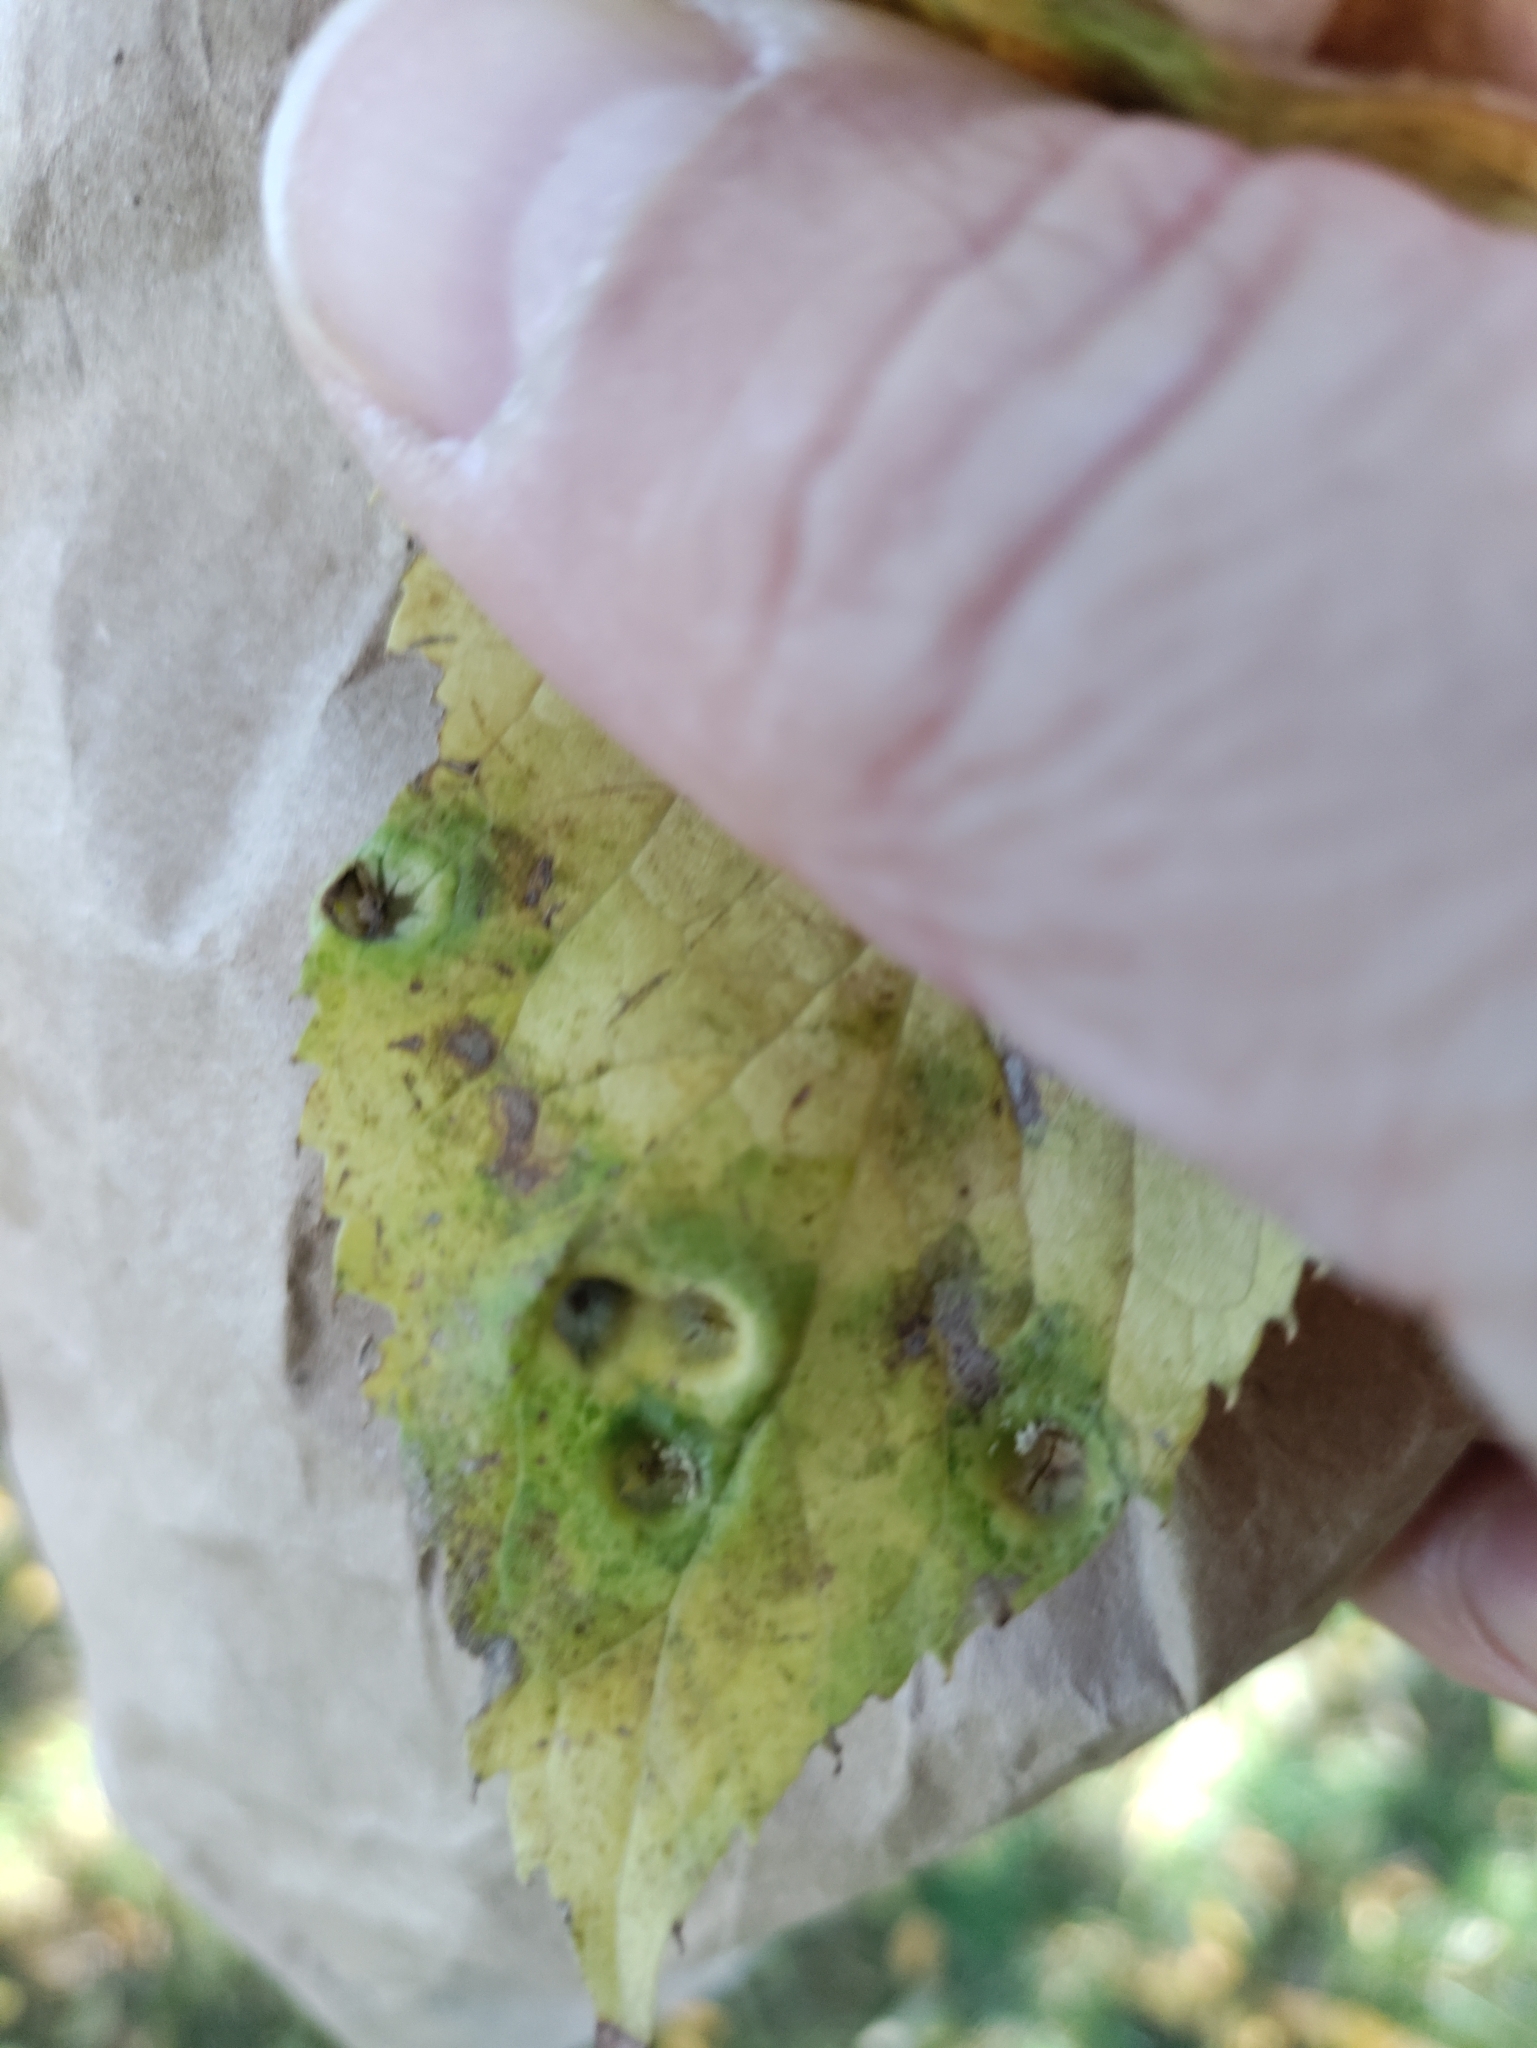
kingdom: Animalia
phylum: Arthropoda
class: Insecta
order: Hemiptera
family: Aphalaridae
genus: Pachypsylla
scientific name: Pachypsylla celtidismamma
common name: Hackberry nipplegall psyllid
